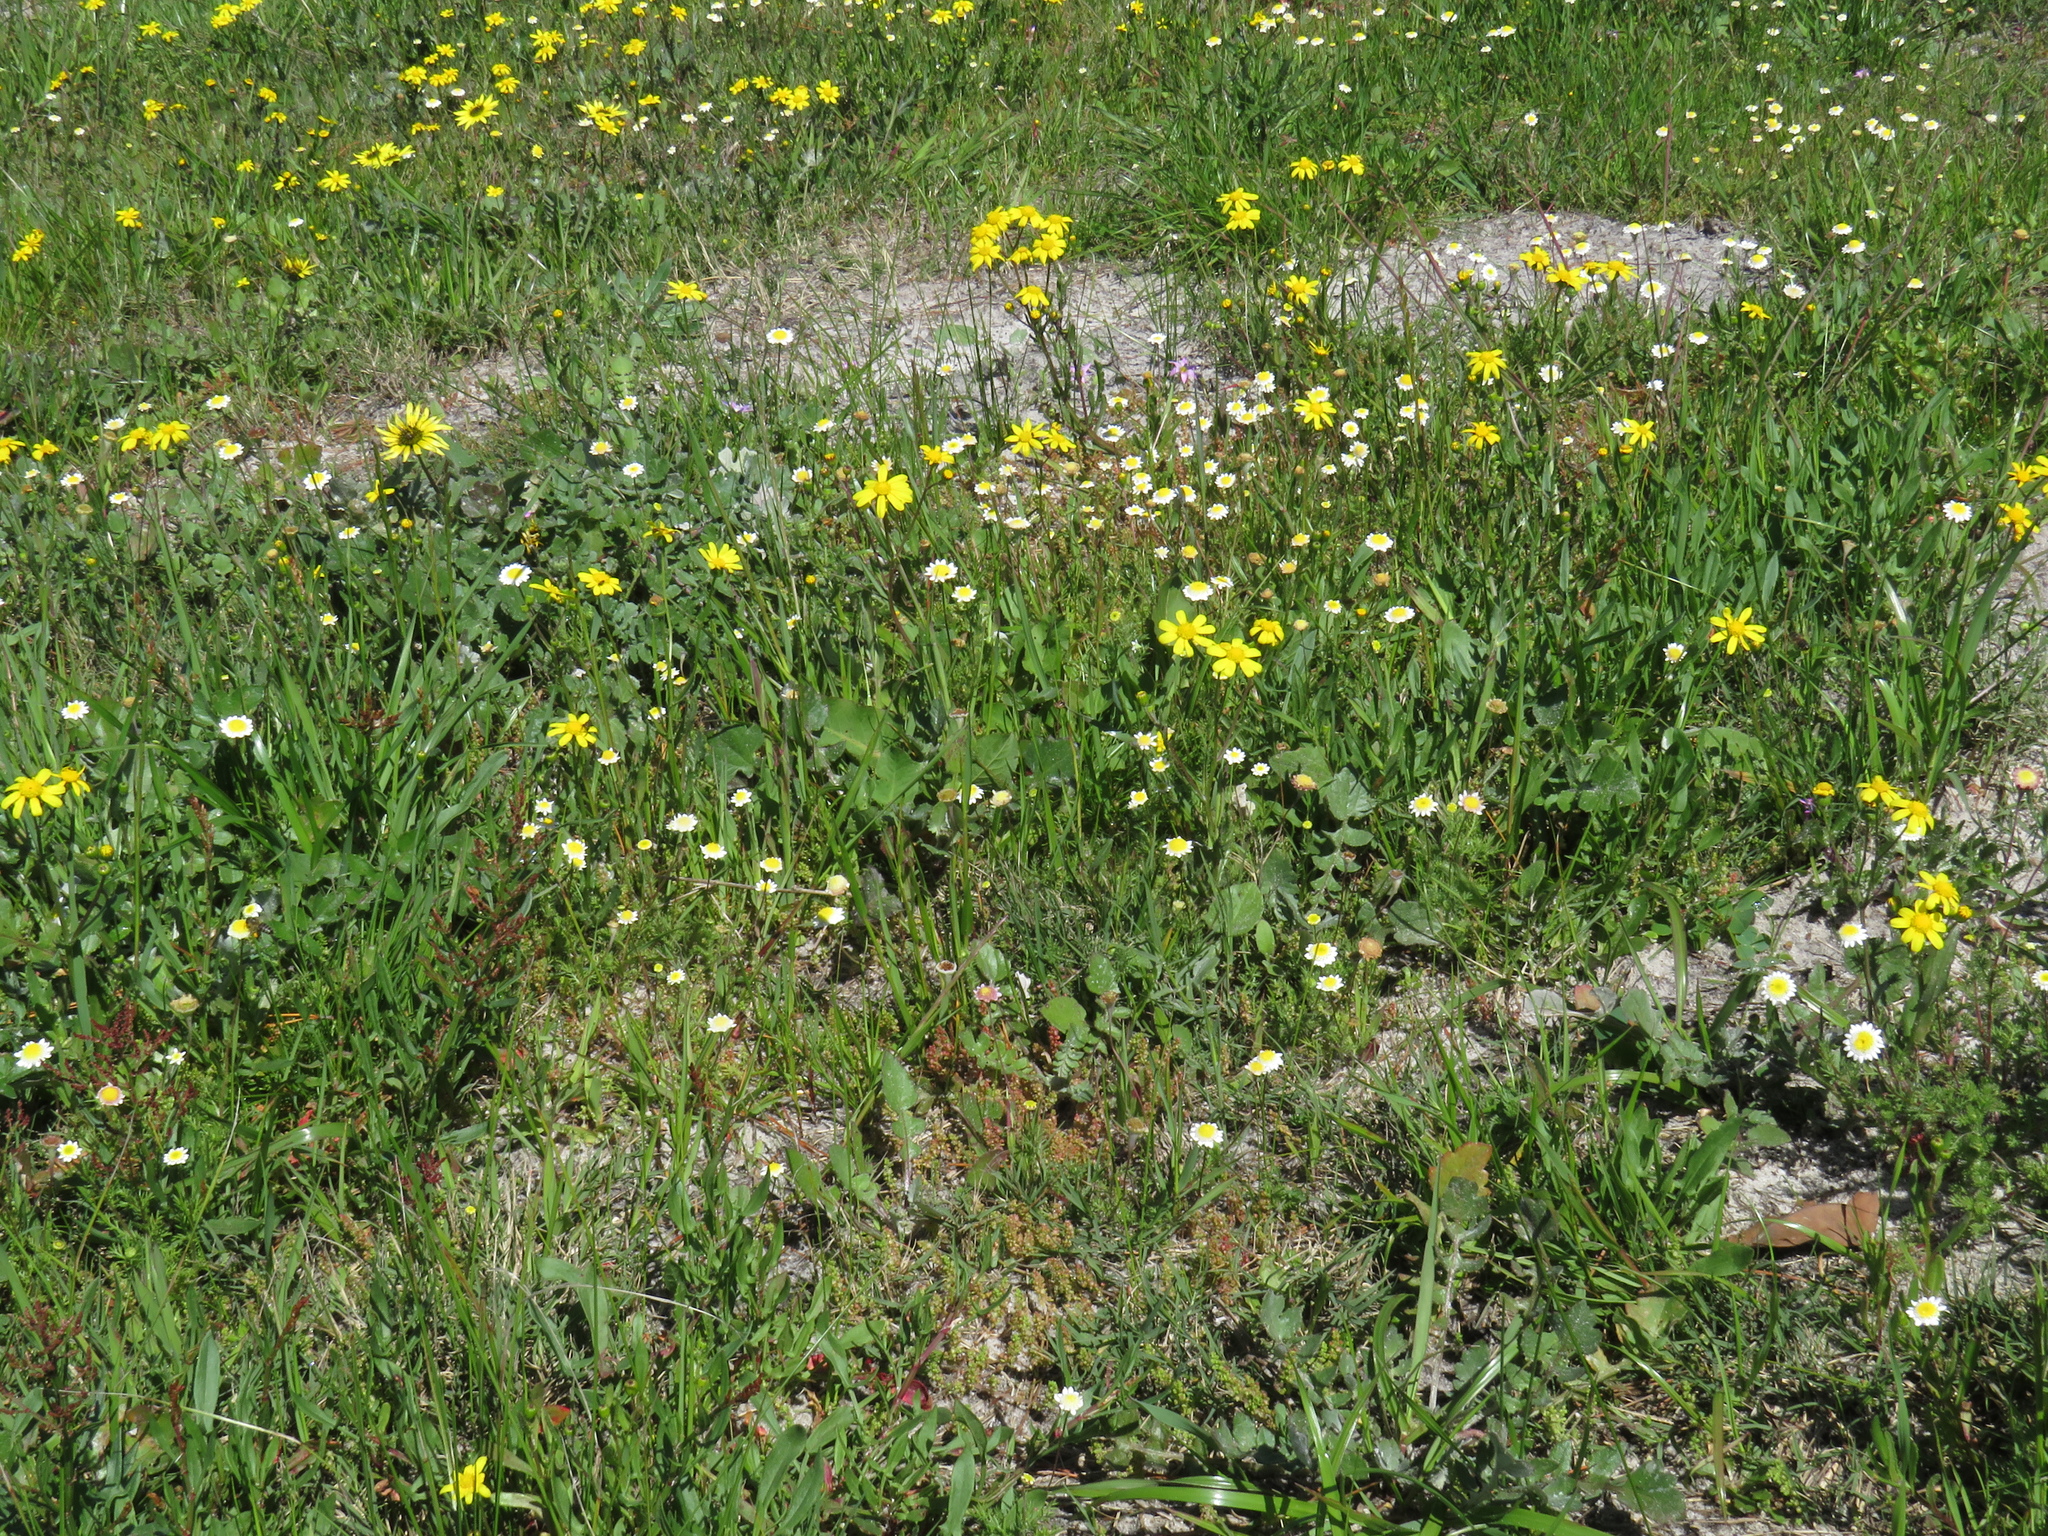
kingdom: Plantae
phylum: Tracheophyta
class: Magnoliopsida
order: Asterales
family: Asteraceae
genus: Cotula
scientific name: Cotula turbinata
